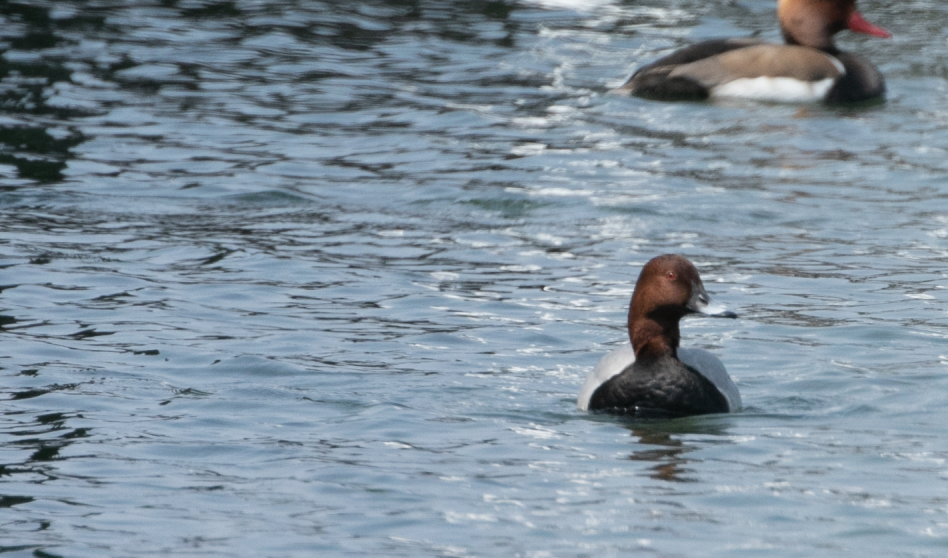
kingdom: Animalia
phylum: Chordata
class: Aves
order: Anseriformes
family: Anatidae
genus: Aythya
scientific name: Aythya ferina
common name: Common pochard
